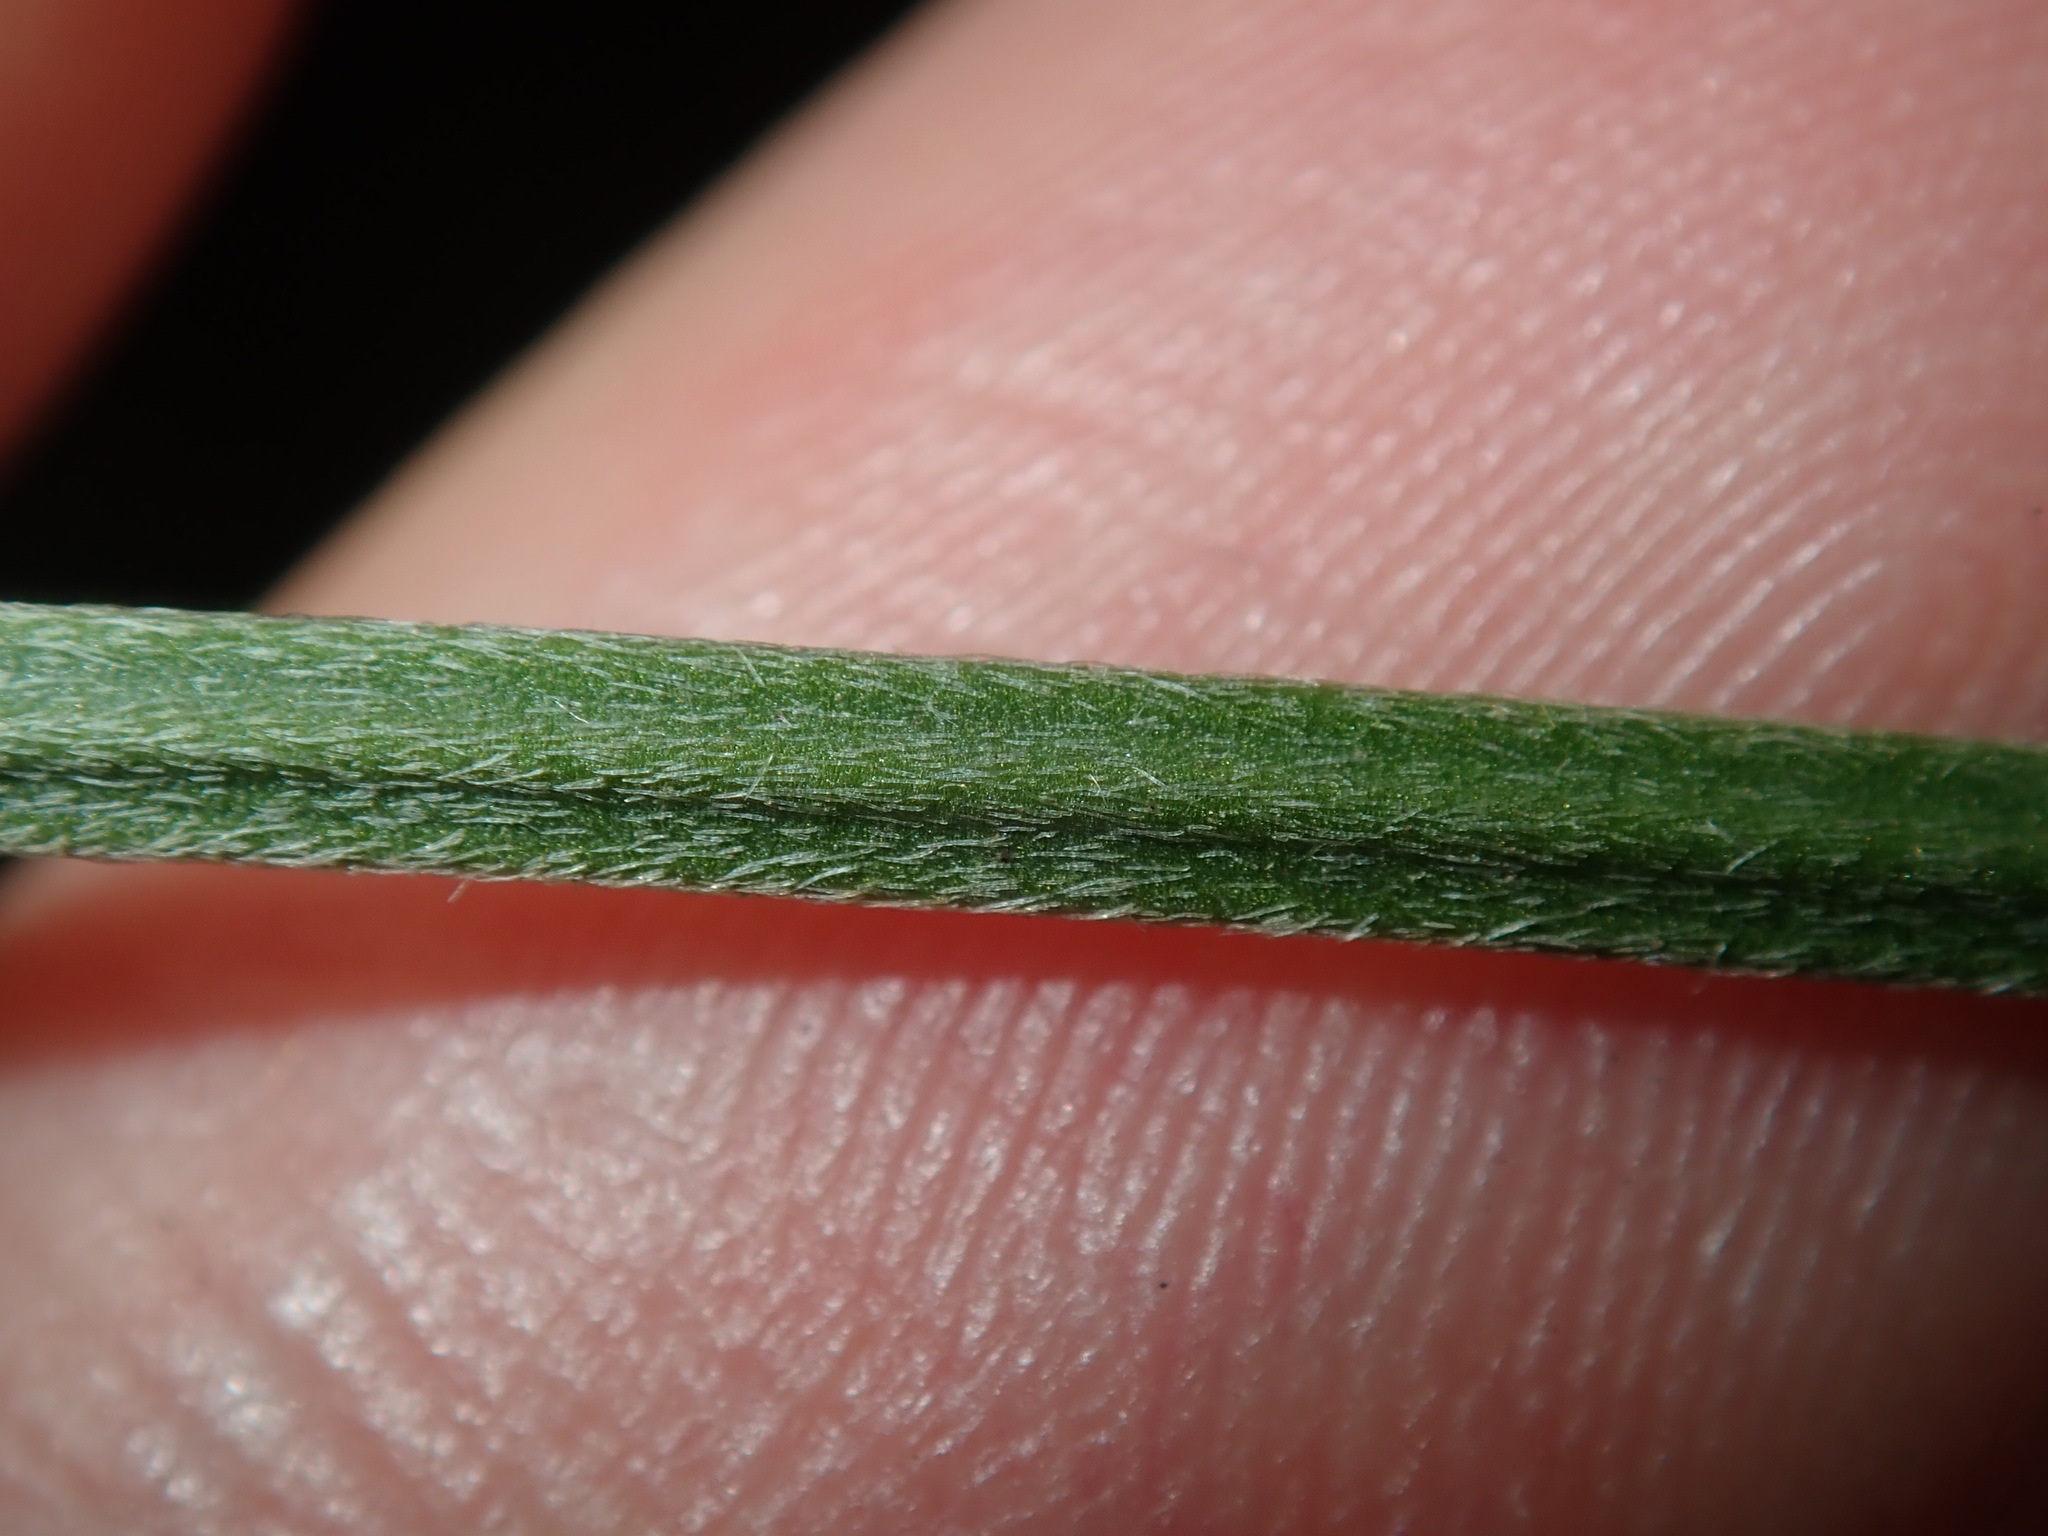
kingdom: Plantae
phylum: Tracheophyta
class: Magnoliopsida
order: Lamiales
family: Plantaginaceae
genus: Plantago
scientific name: Plantago lanceolata
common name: Ribwort plantain
